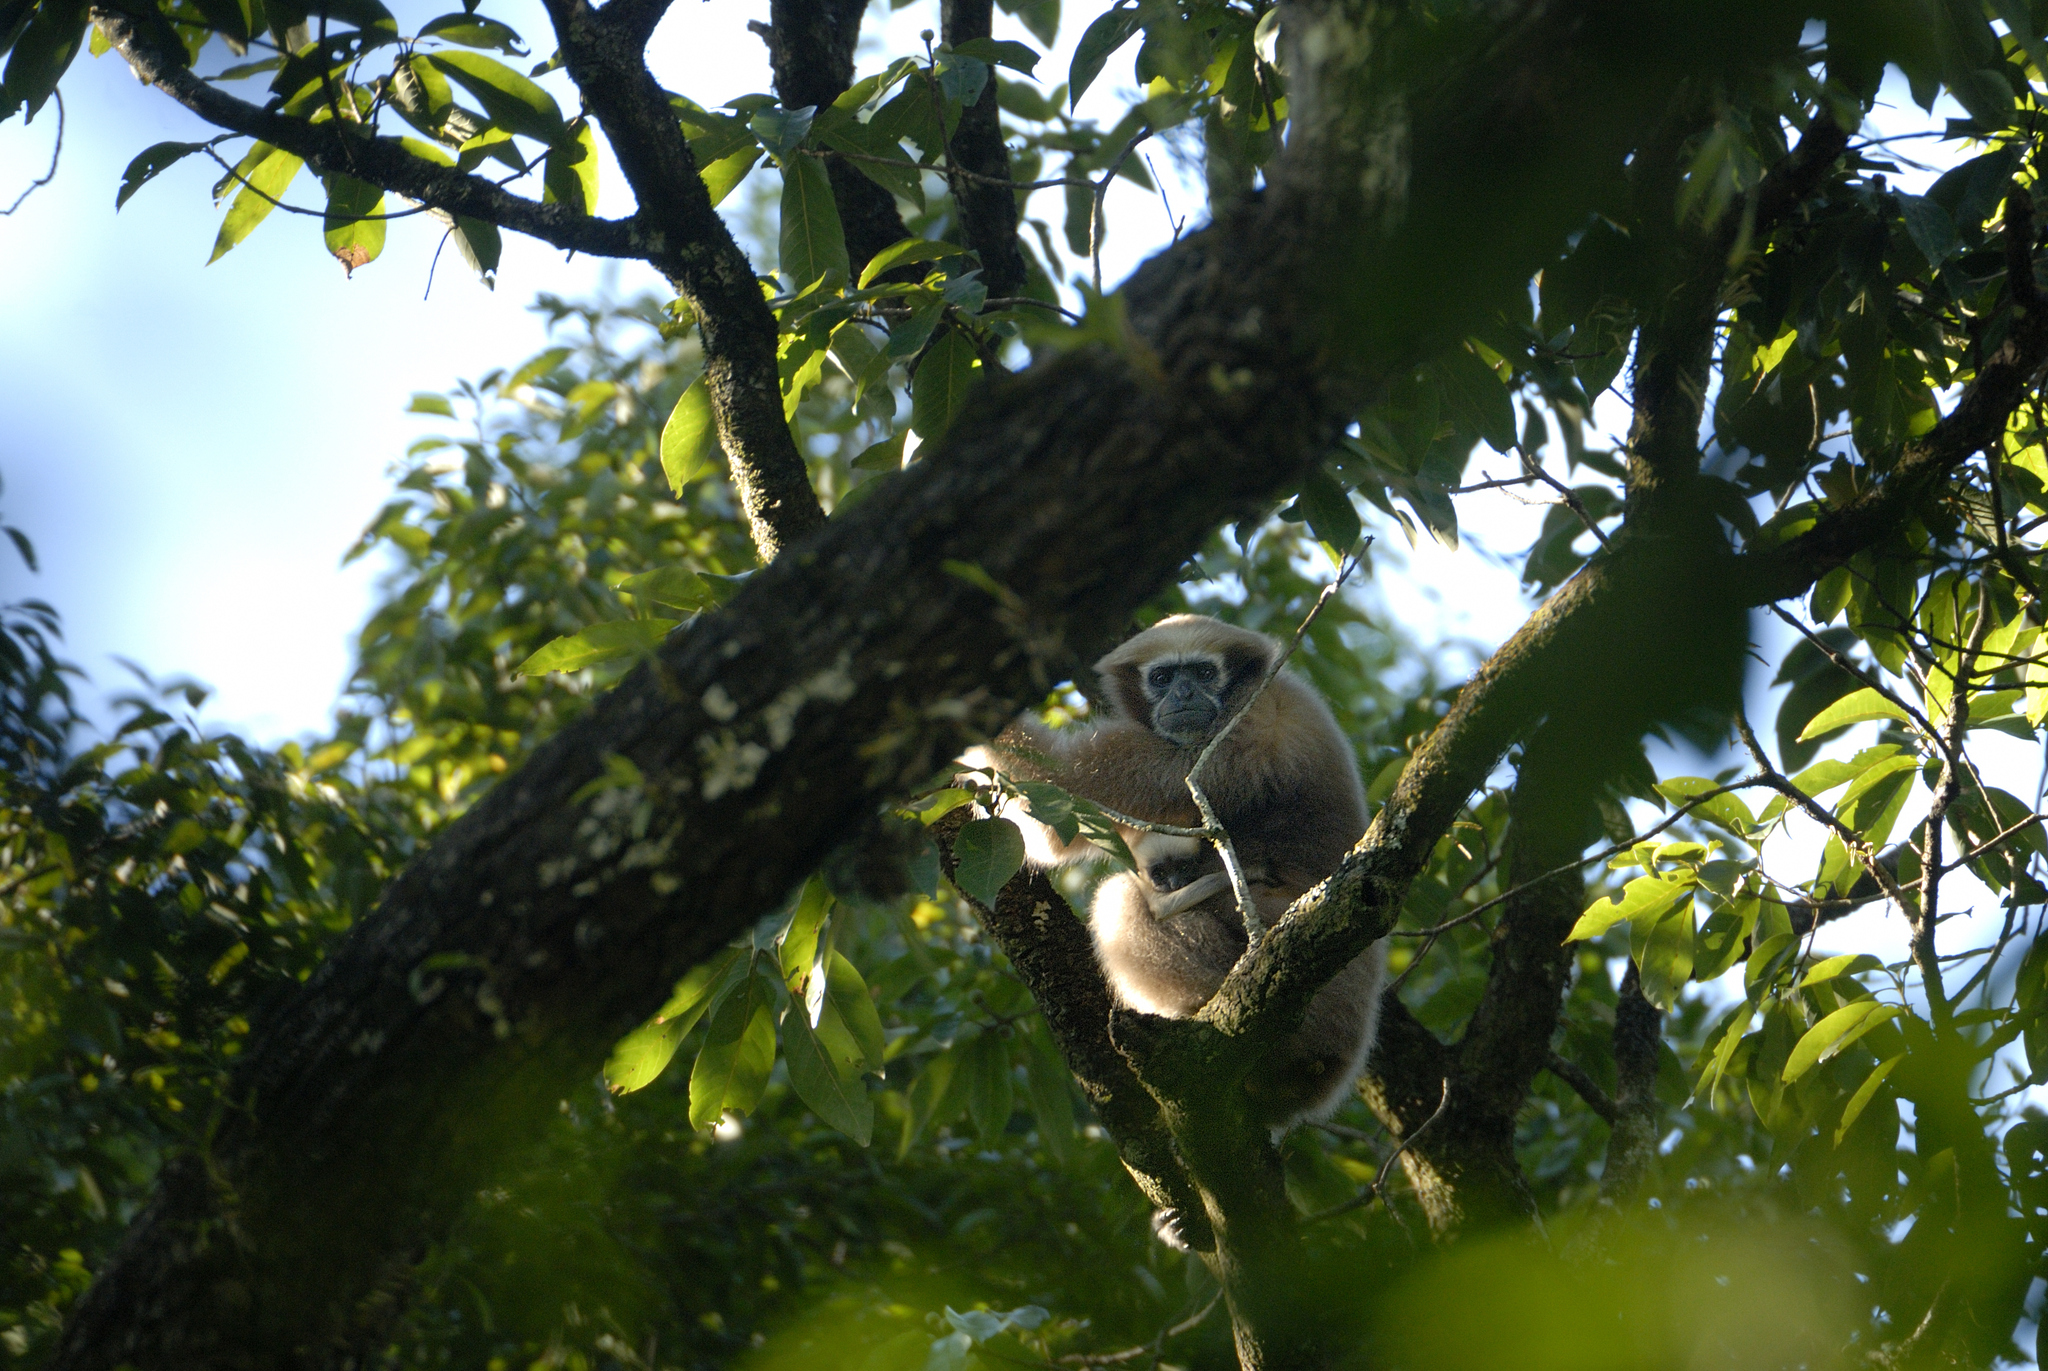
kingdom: Animalia
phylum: Chordata
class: Mammalia
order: Primates
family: Hylobatidae
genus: Hoolock
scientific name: Hoolock hoolock
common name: Western hoolock gibbon
